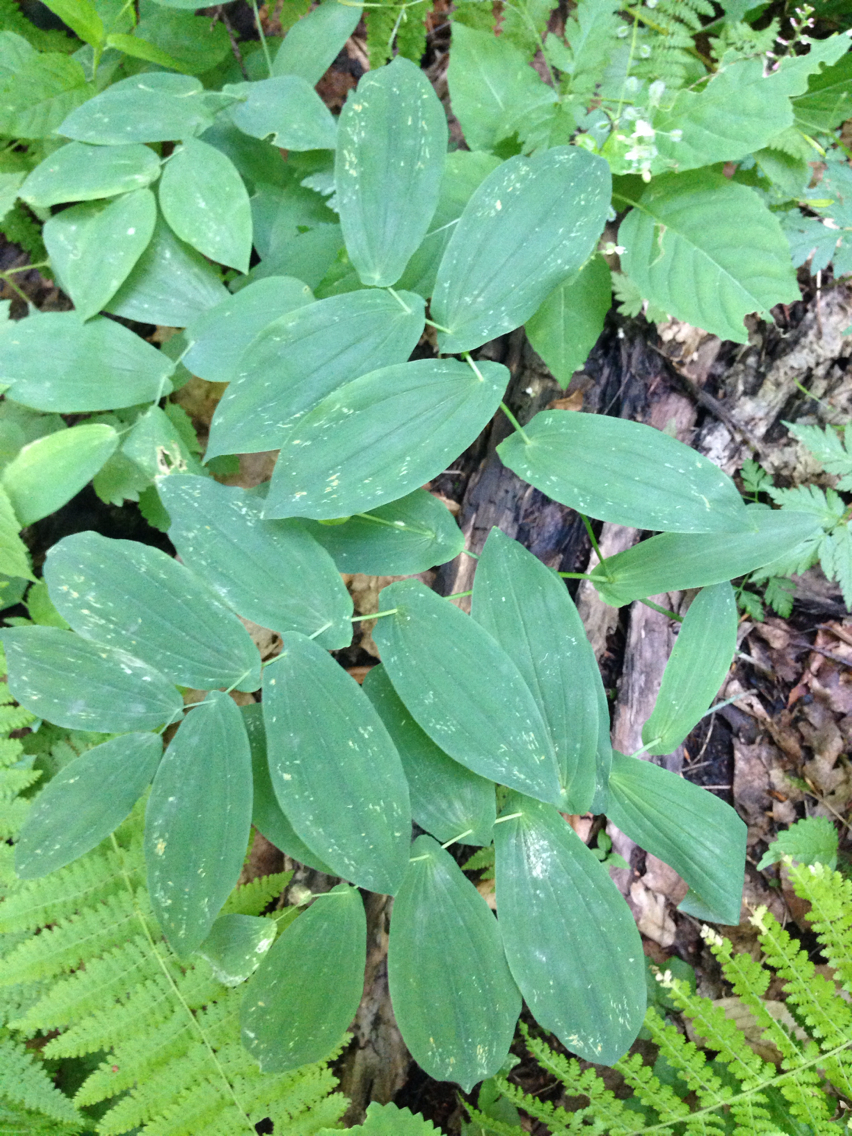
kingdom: Plantae
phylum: Tracheophyta
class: Liliopsida
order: Liliales
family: Colchicaceae
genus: Uvularia
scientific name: Uvularia grandiflora
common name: Bellwort
